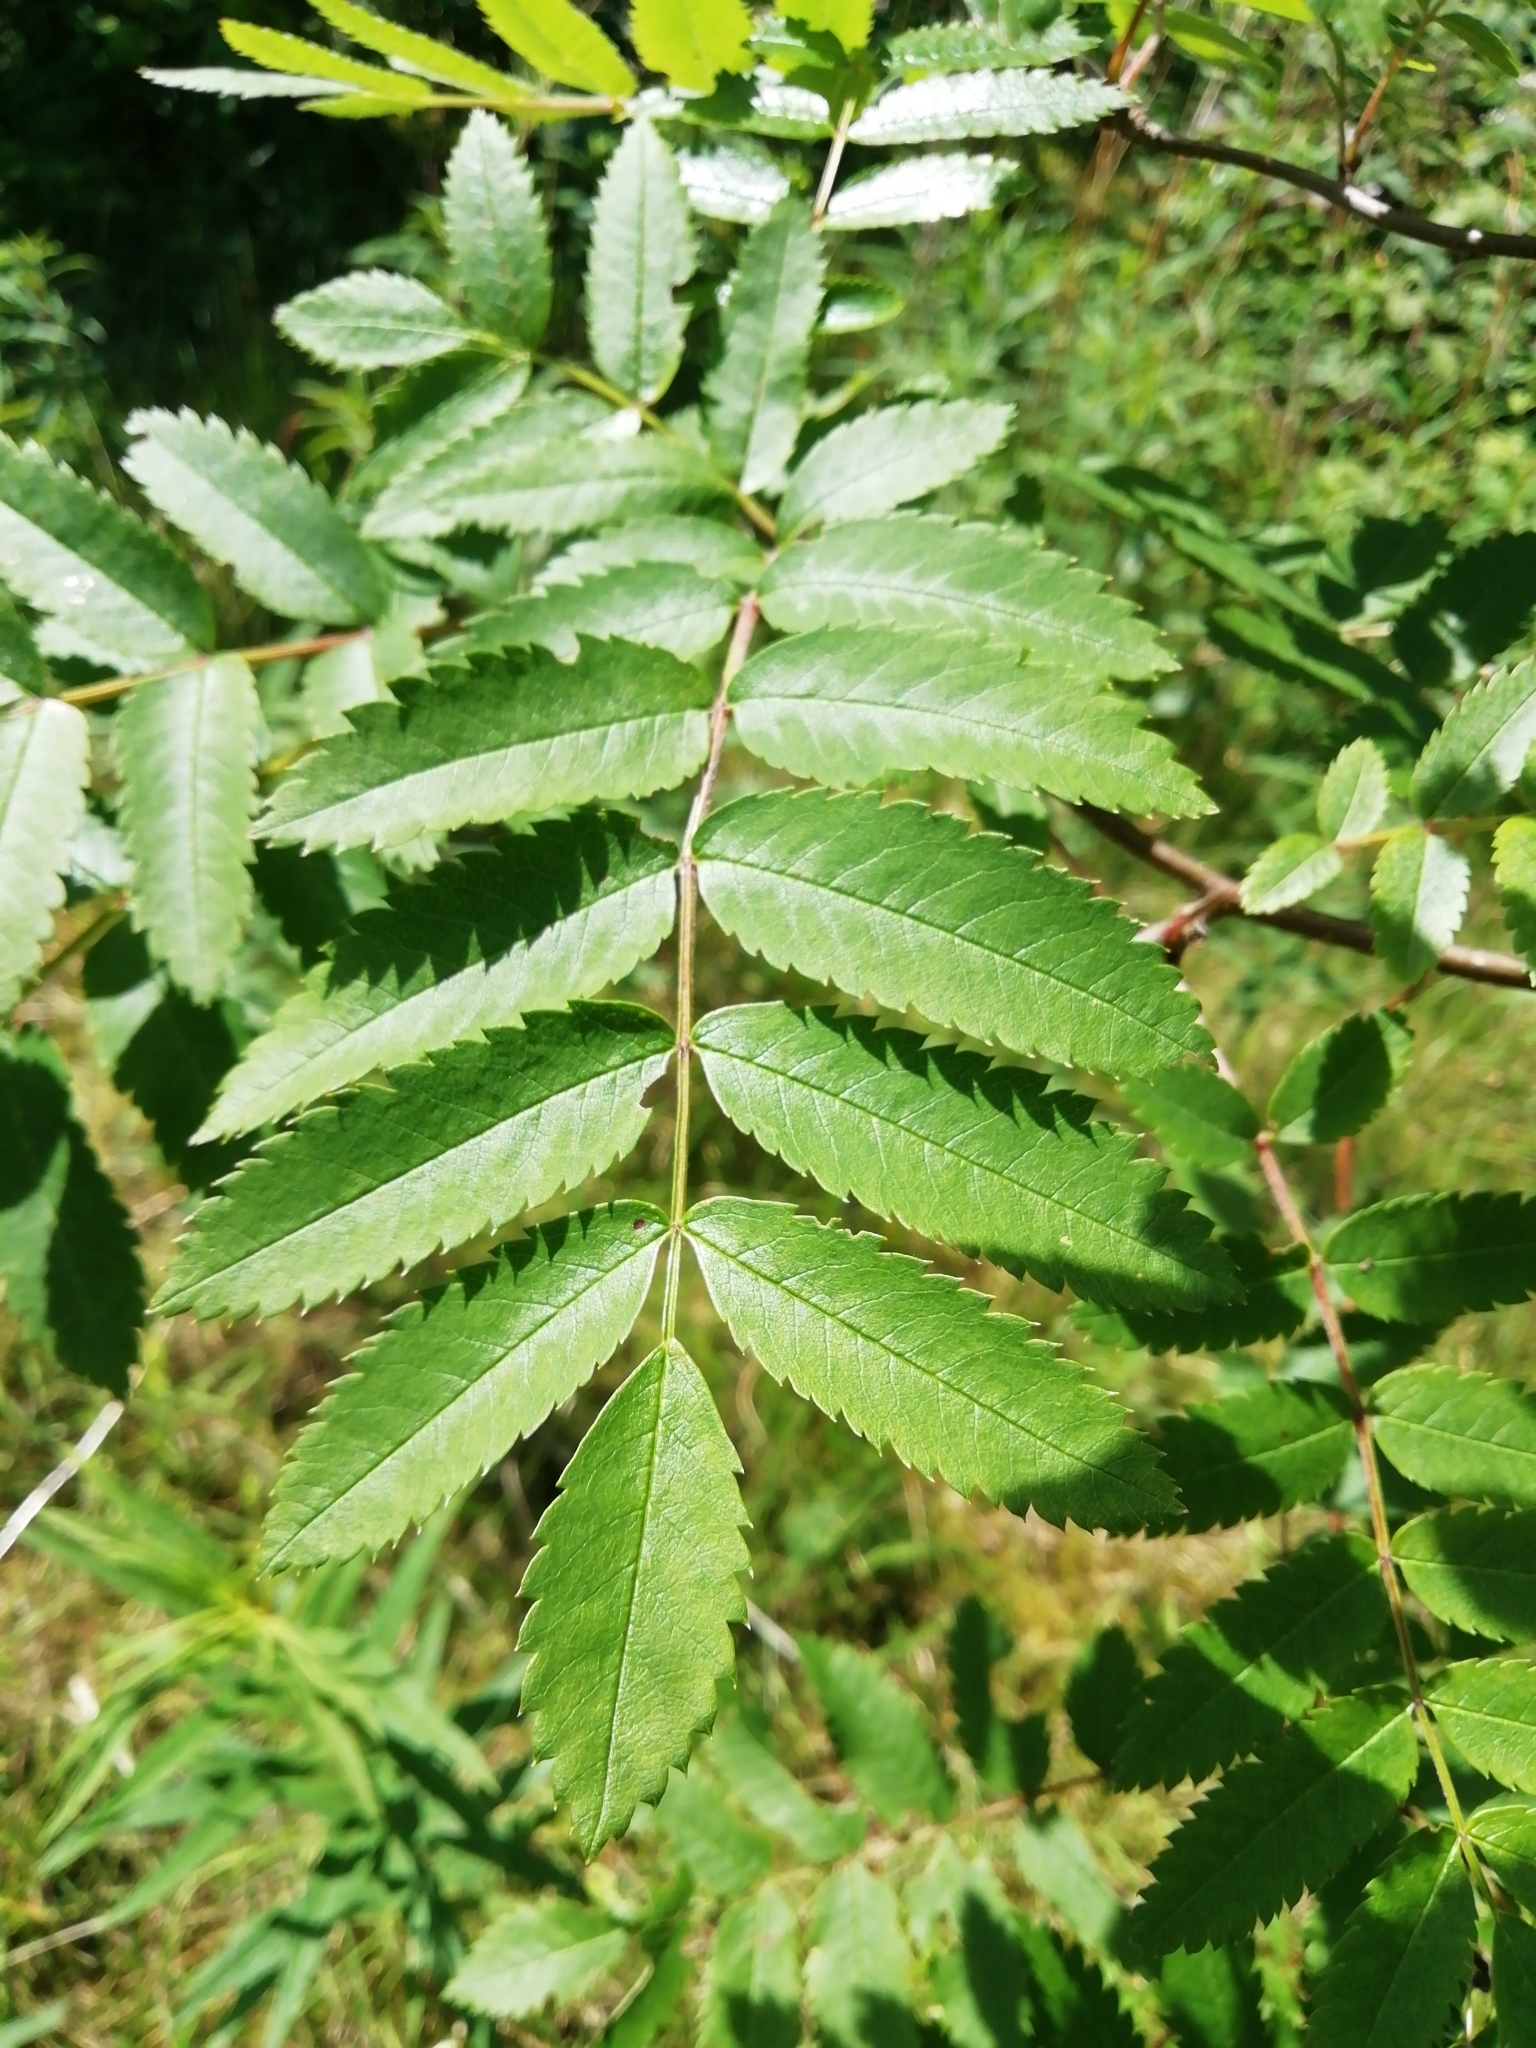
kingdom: Plantae
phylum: Tracheophyta
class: Magnoliopsida
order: Rosales
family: Rosaceae
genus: Sorbus
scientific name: Sorbus aucuparia
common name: Rowan
